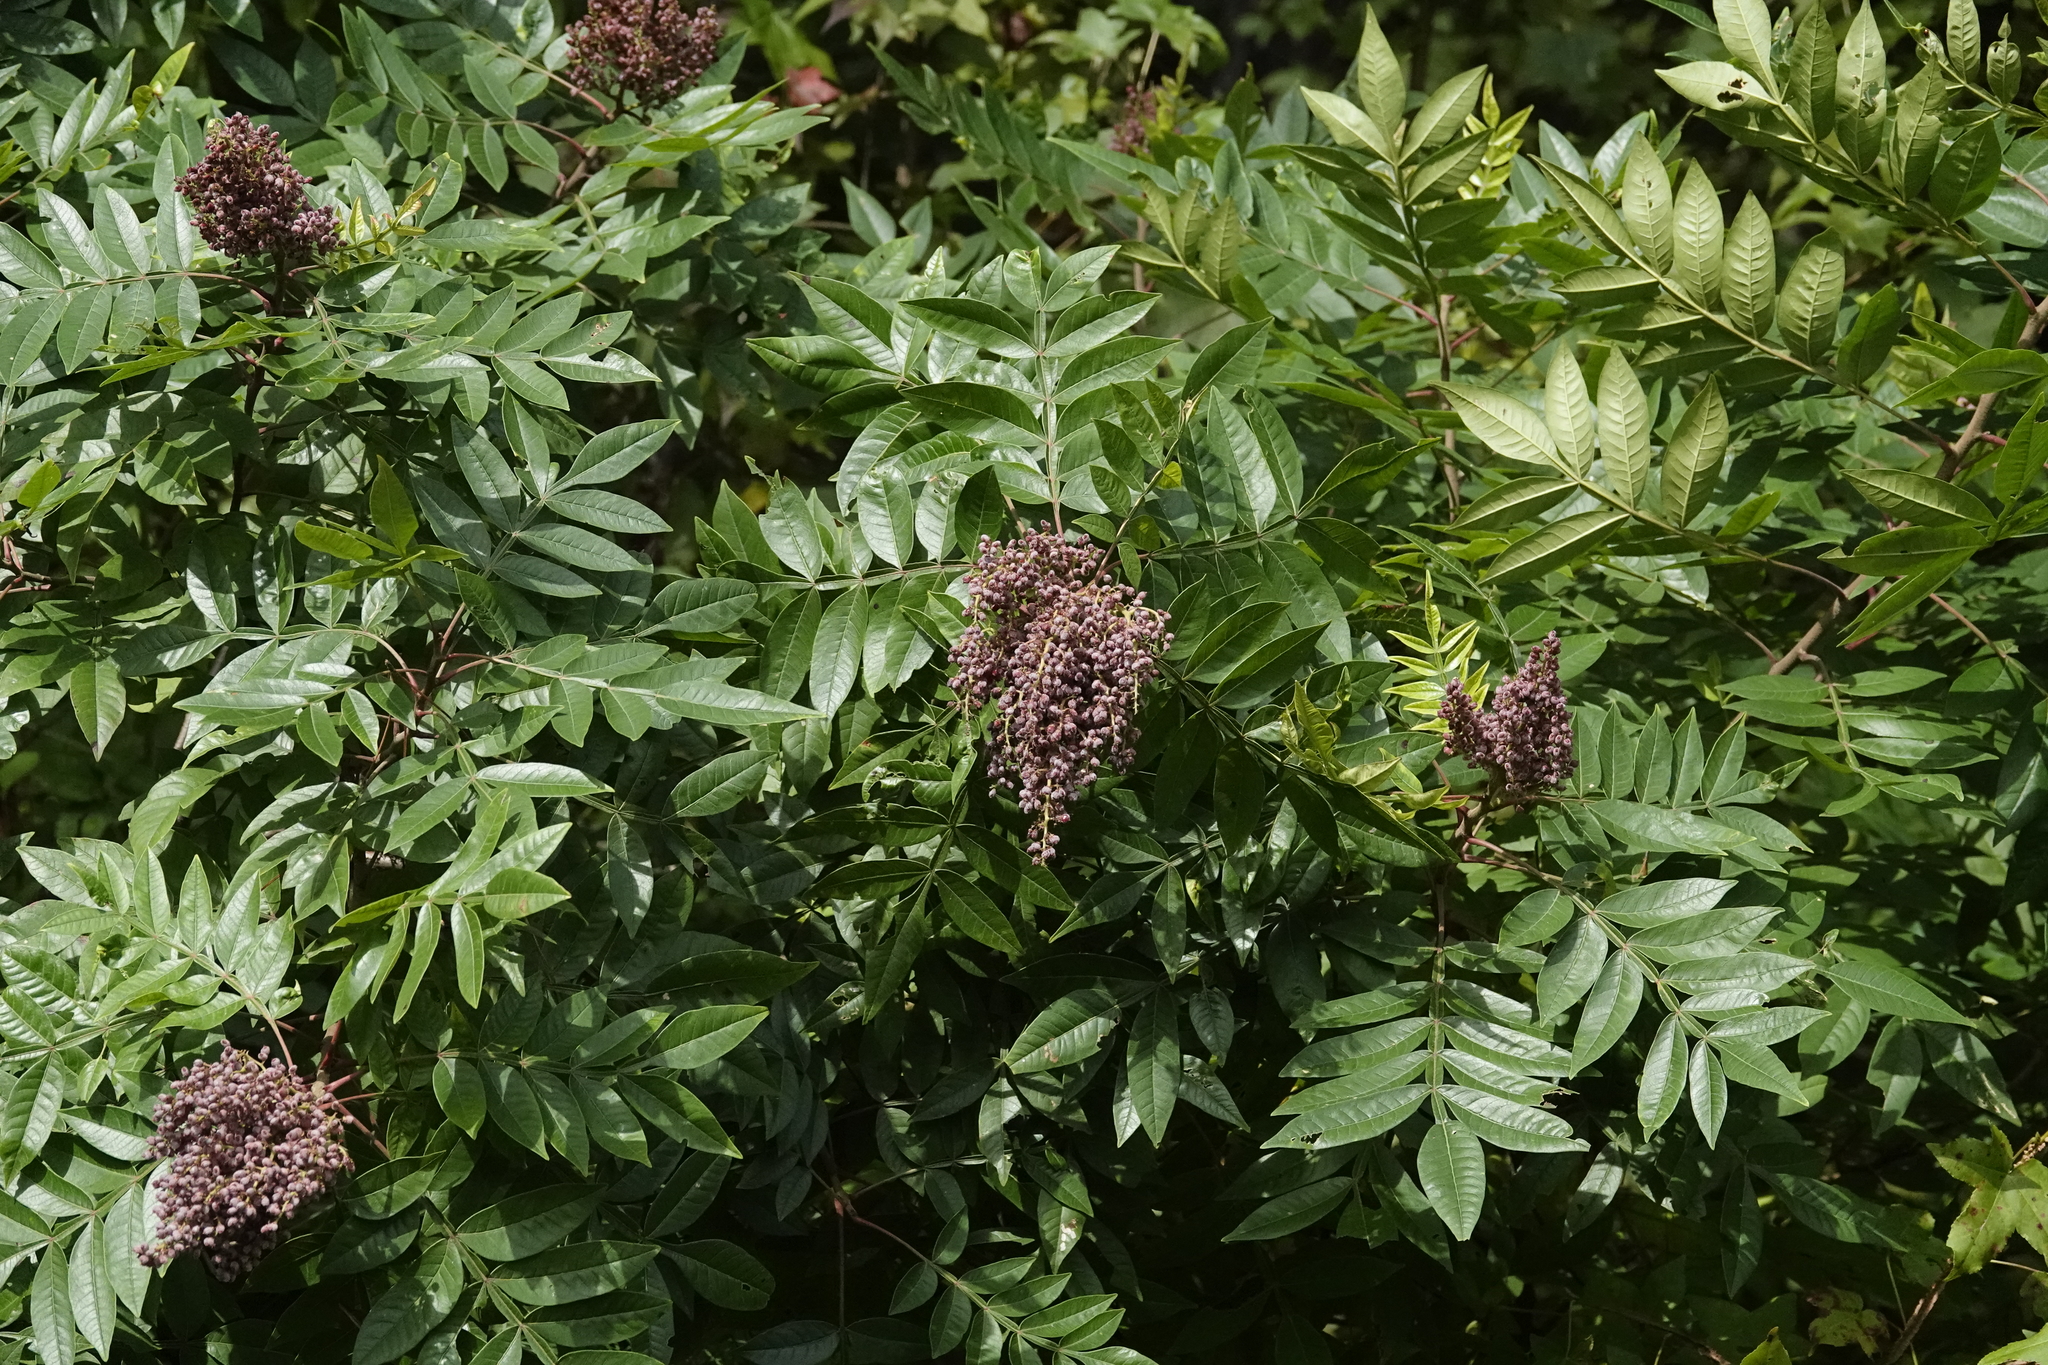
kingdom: Plantae
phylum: Tracheophyta
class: Magnoliopsida
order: Sapindales
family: Anacardiaceae
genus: Rhus
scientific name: Rhus copallina
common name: Shining sumac
